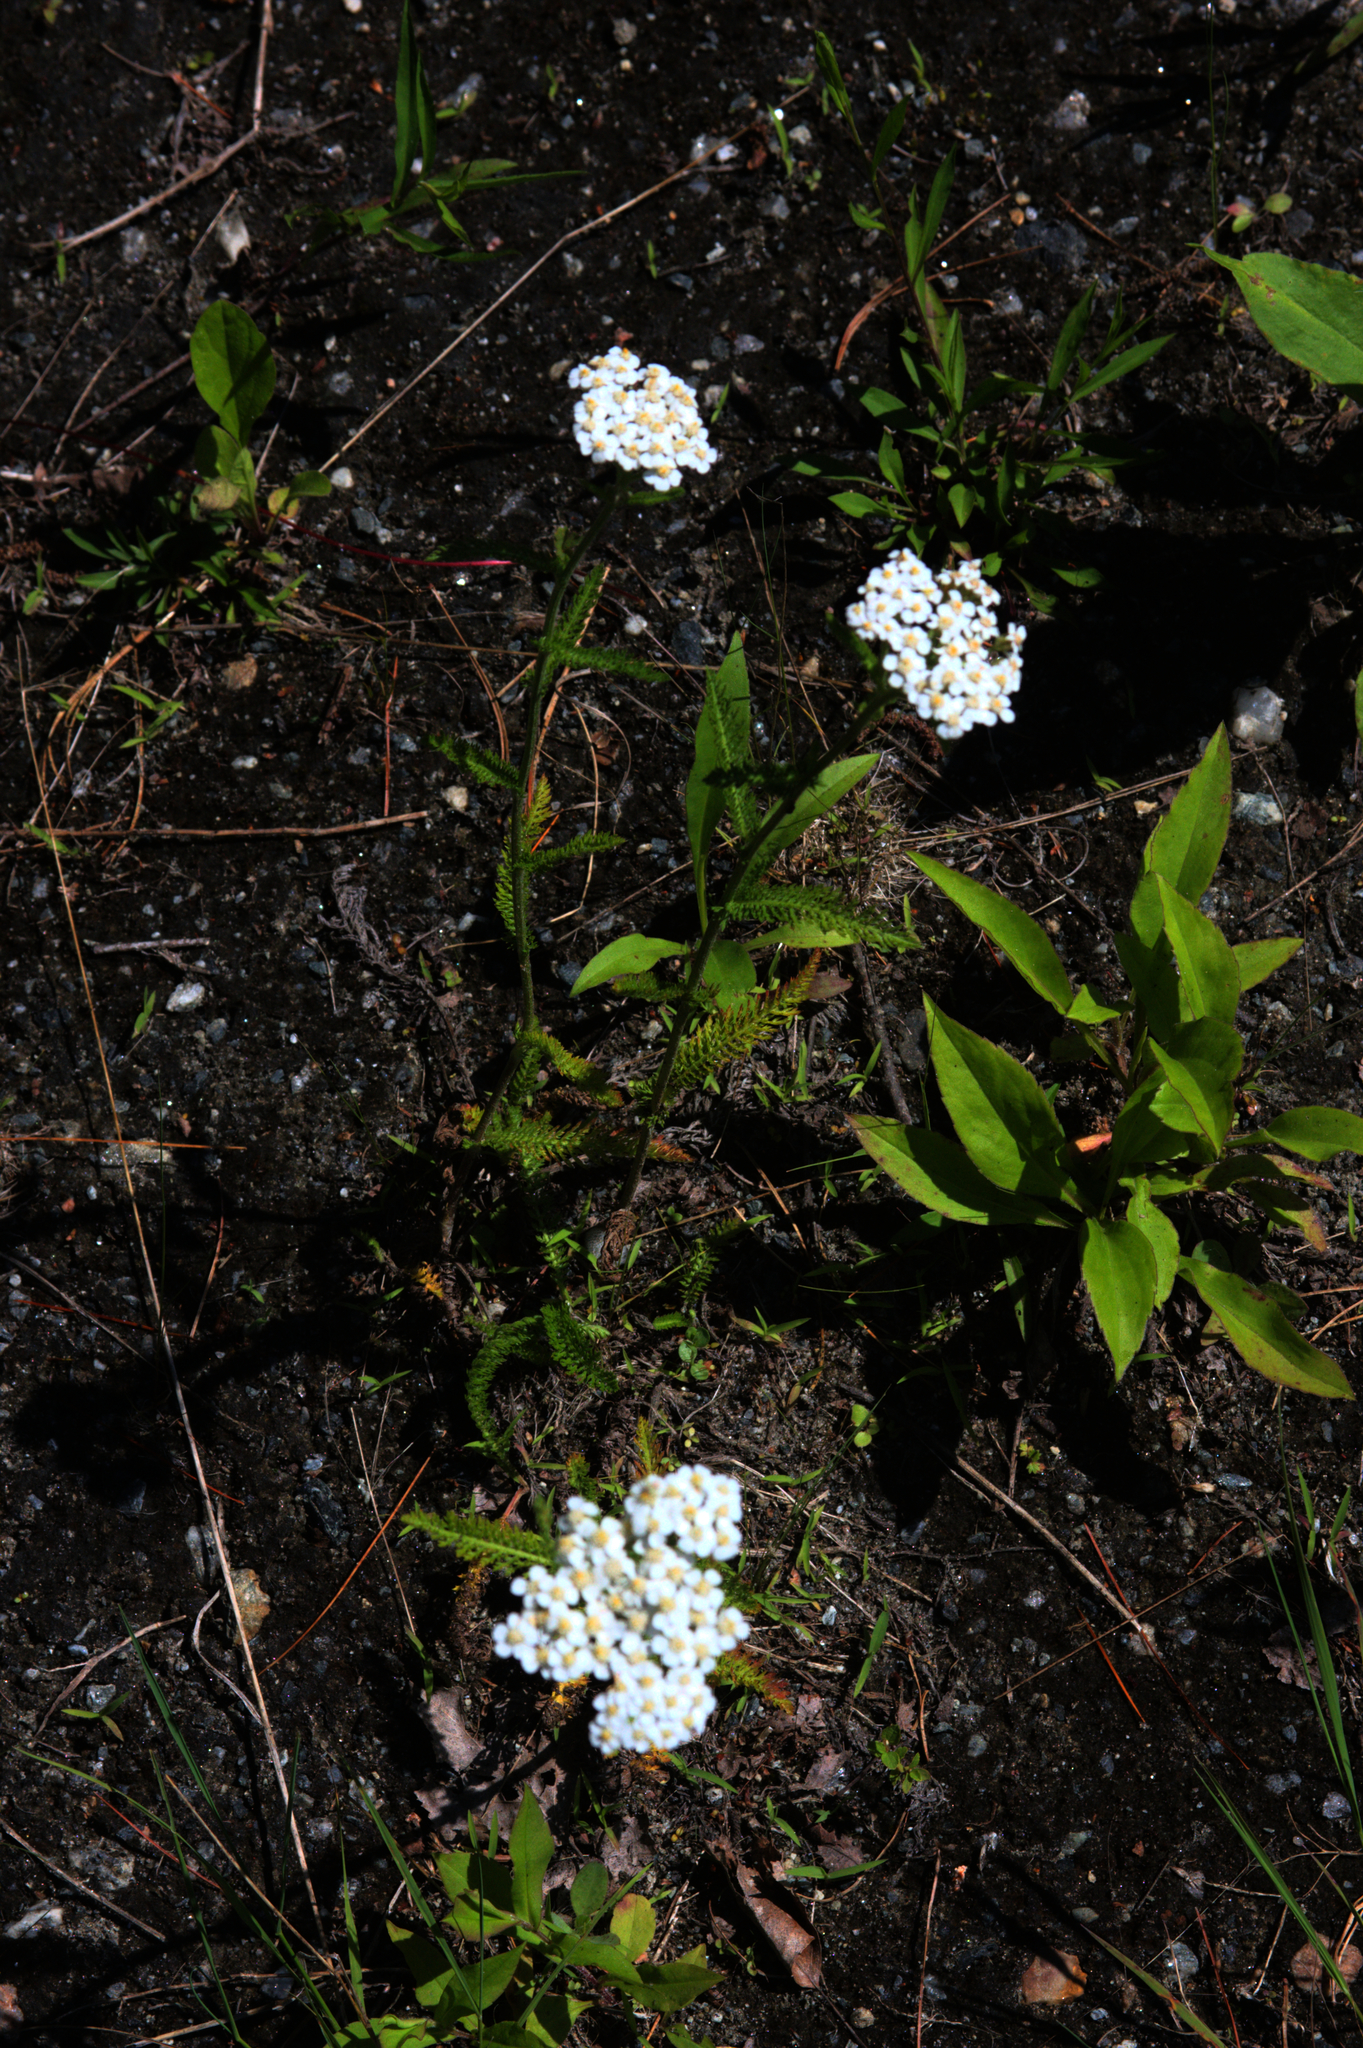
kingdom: Plantae
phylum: Tracheophyta
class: Magnoliopsida
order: Asterales
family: Asteraceae
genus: Achillea
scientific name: Achillea millefolium
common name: Yarrow
